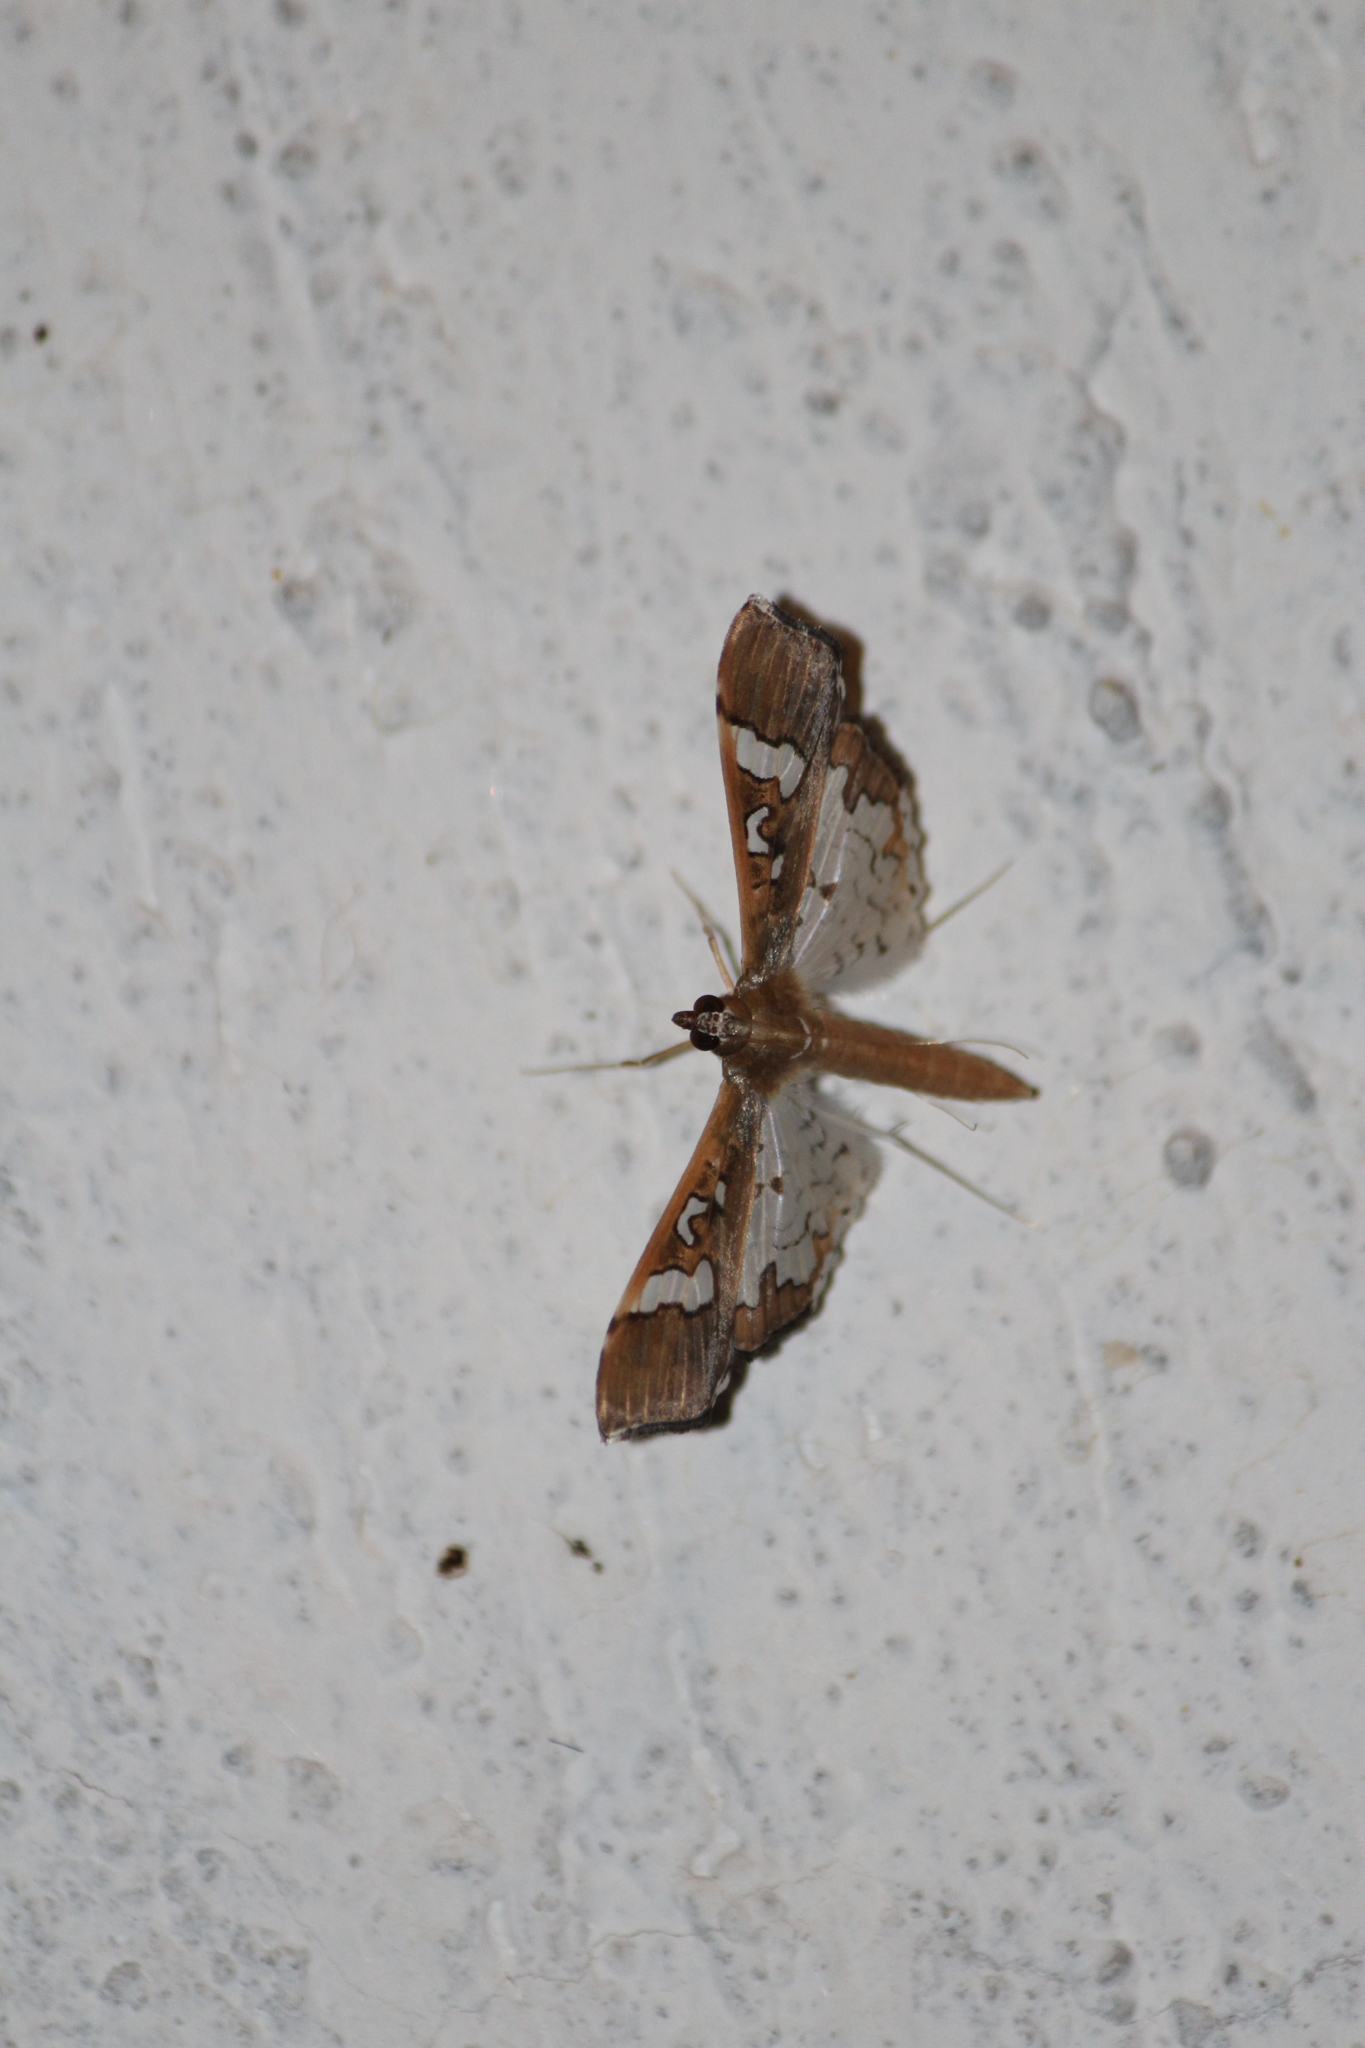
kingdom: Animalia
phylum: Arthropoda
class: Insecta
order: Lepidoptera
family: Crambidae
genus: Maruca
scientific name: Maruca vitrata
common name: Maruca pod borer
